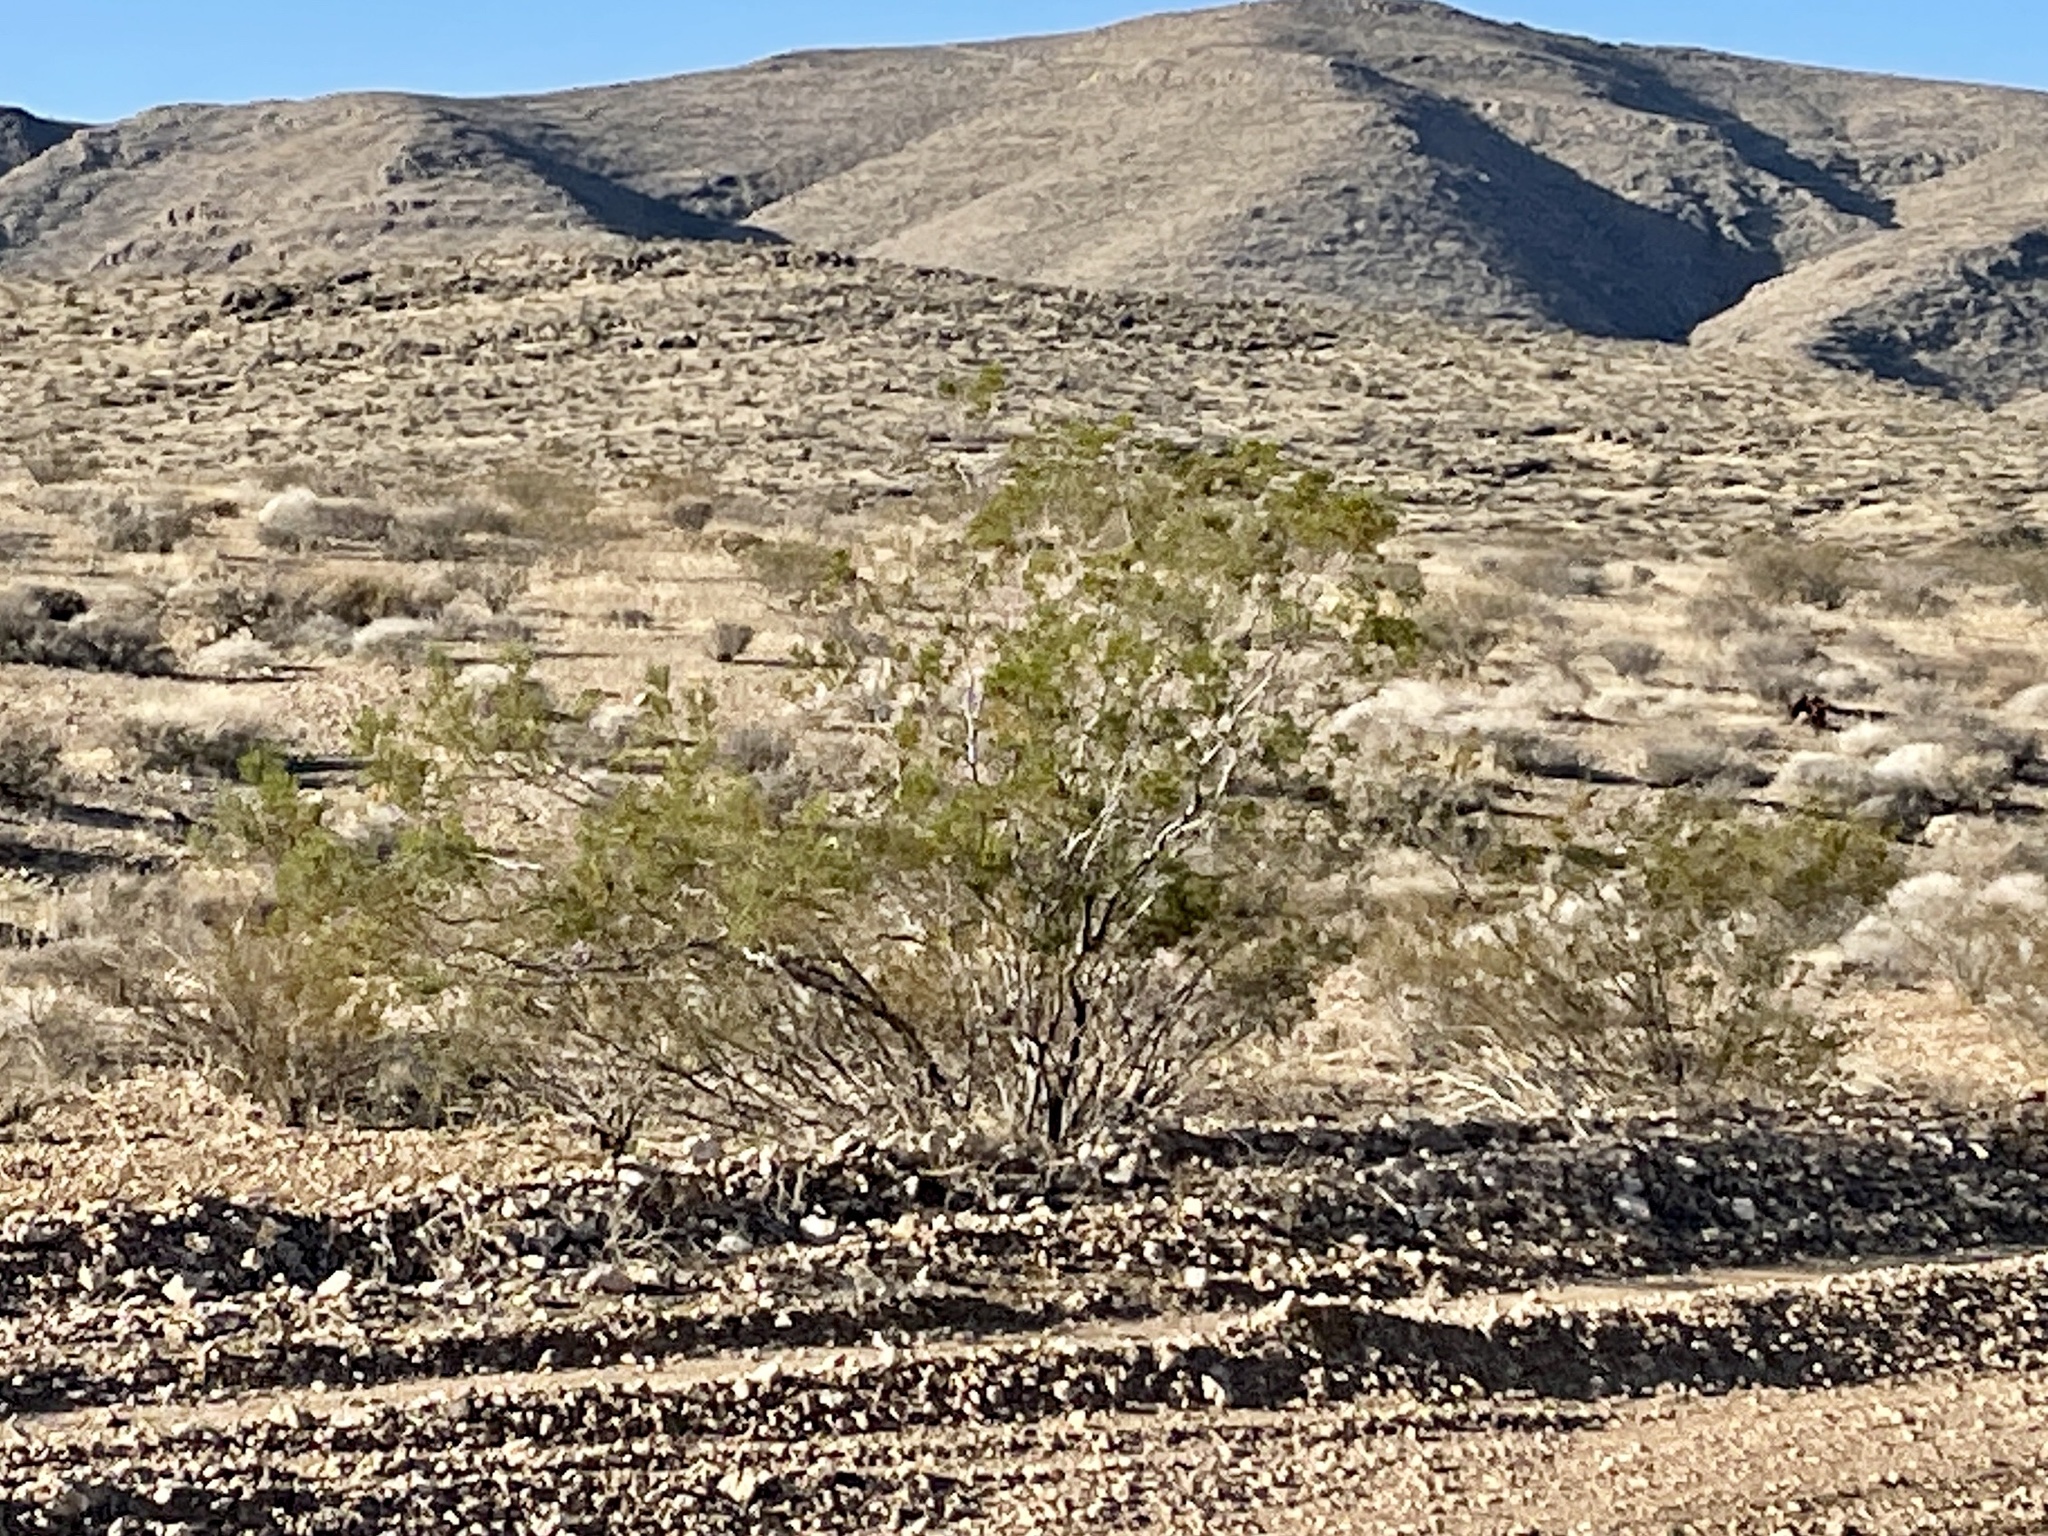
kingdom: Plantae
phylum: Tracheophyta
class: Magnoliopsida
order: Zygophyllales
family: Zygophyllaceae
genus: Larrea
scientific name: Larrea tridentata
